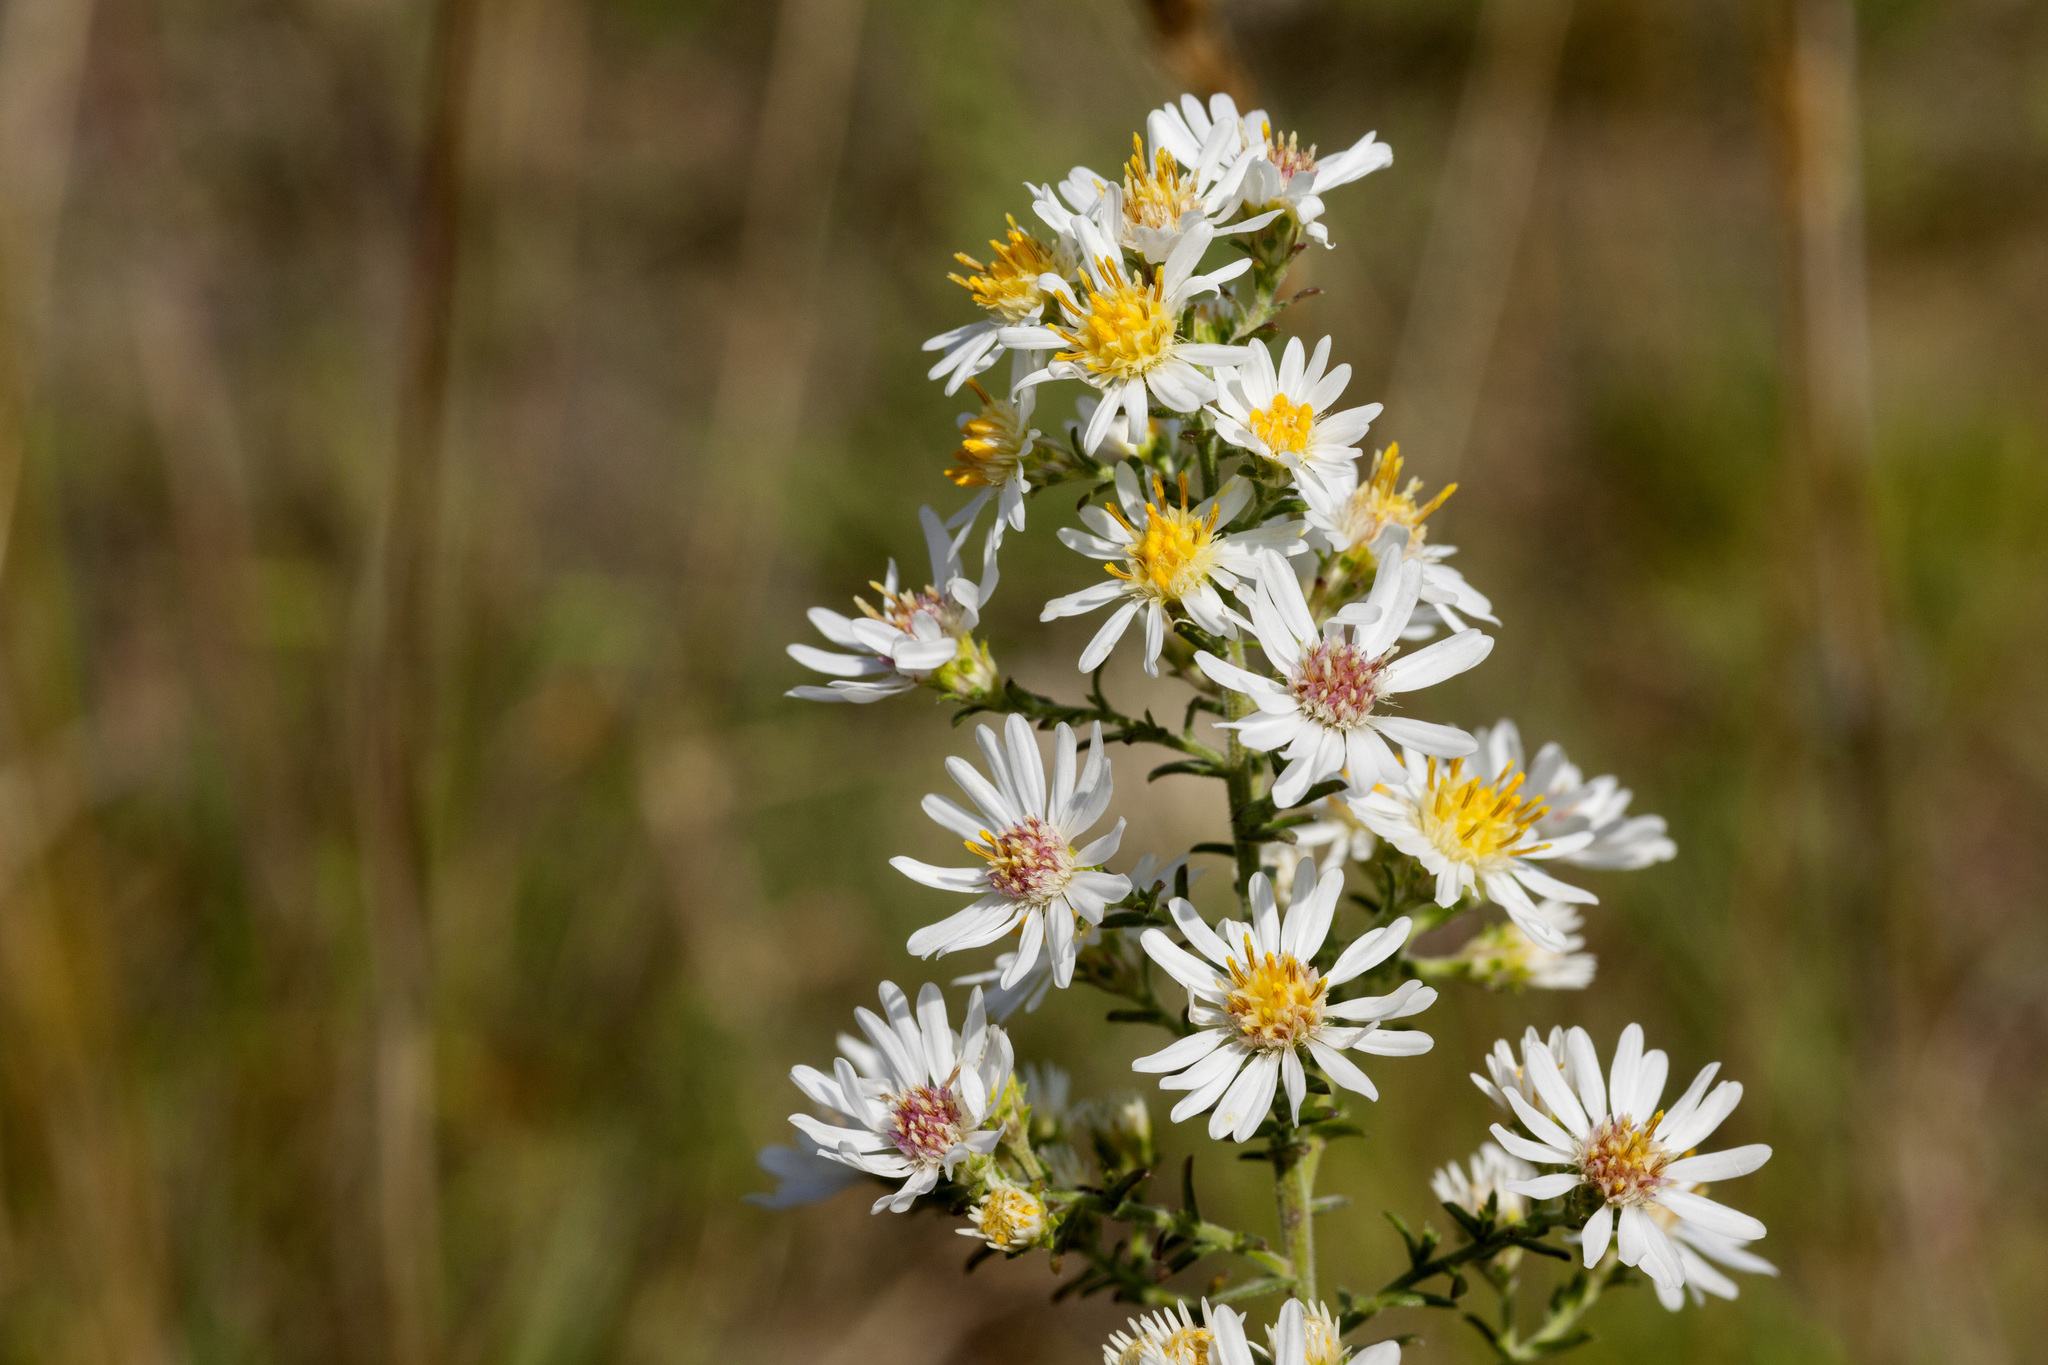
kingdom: Plantae
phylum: Tracheophyta
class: Magnoliopsida
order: Asterales
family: Asteraceae
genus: Symphyotrichum
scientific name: Symphyotrichum ericoides
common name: Heath aster
